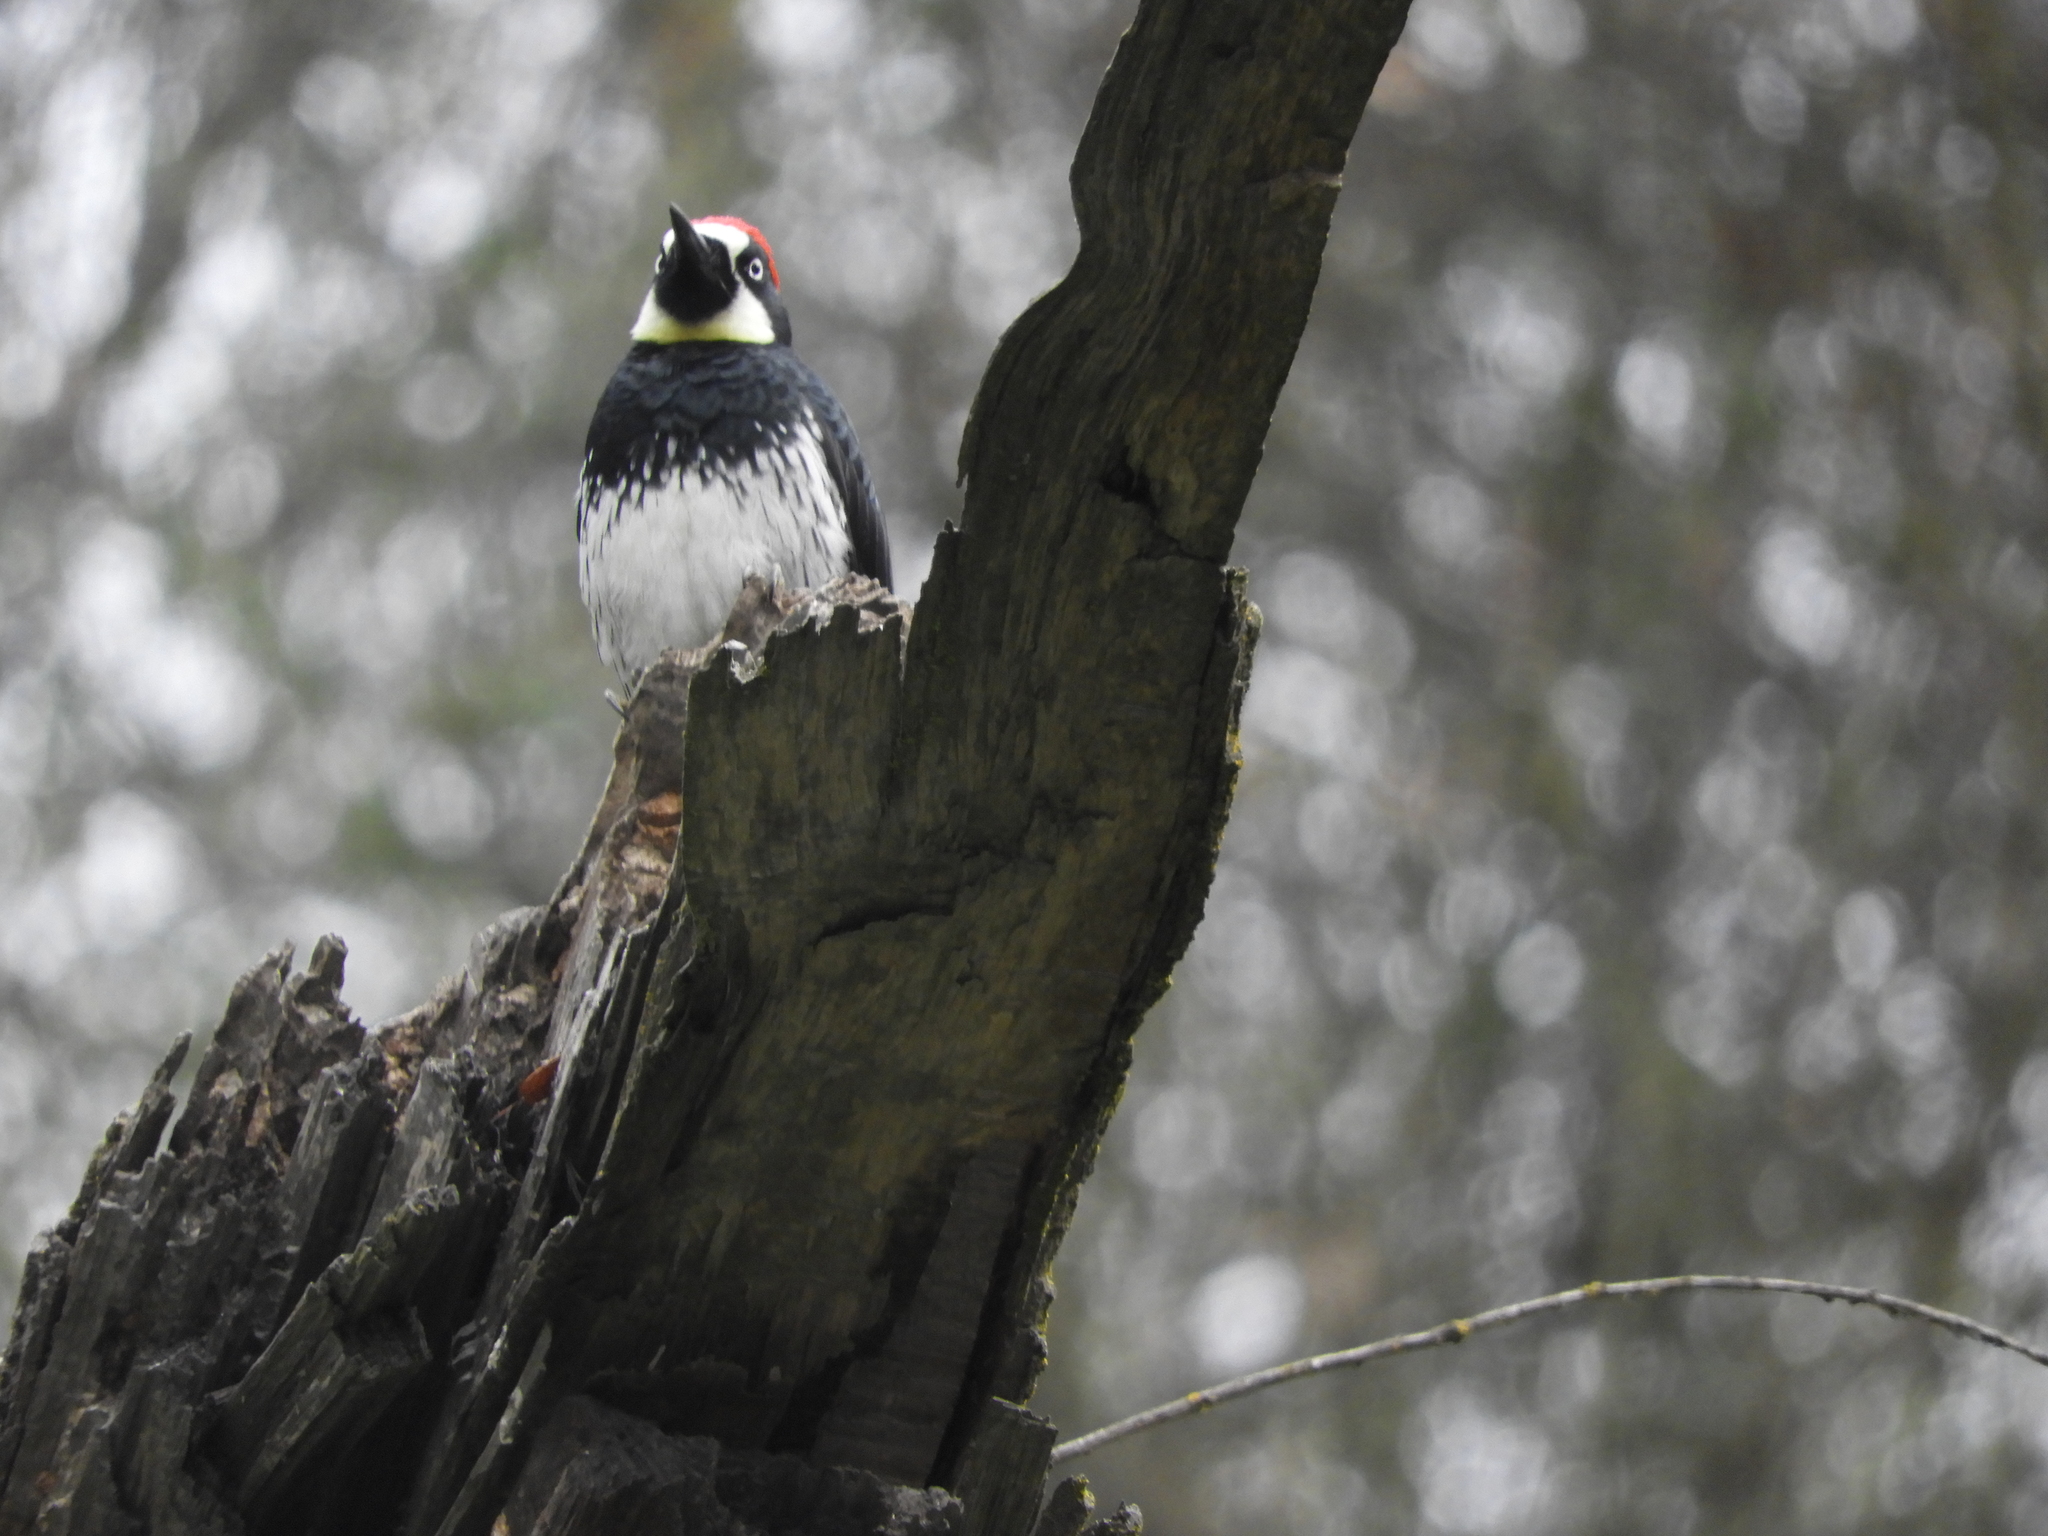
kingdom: Animalia
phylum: Chordata
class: Aves
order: Piciformes
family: Picidae
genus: Melanerpes
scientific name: Melanerpes formicivorus
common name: Acorn woodpecker
